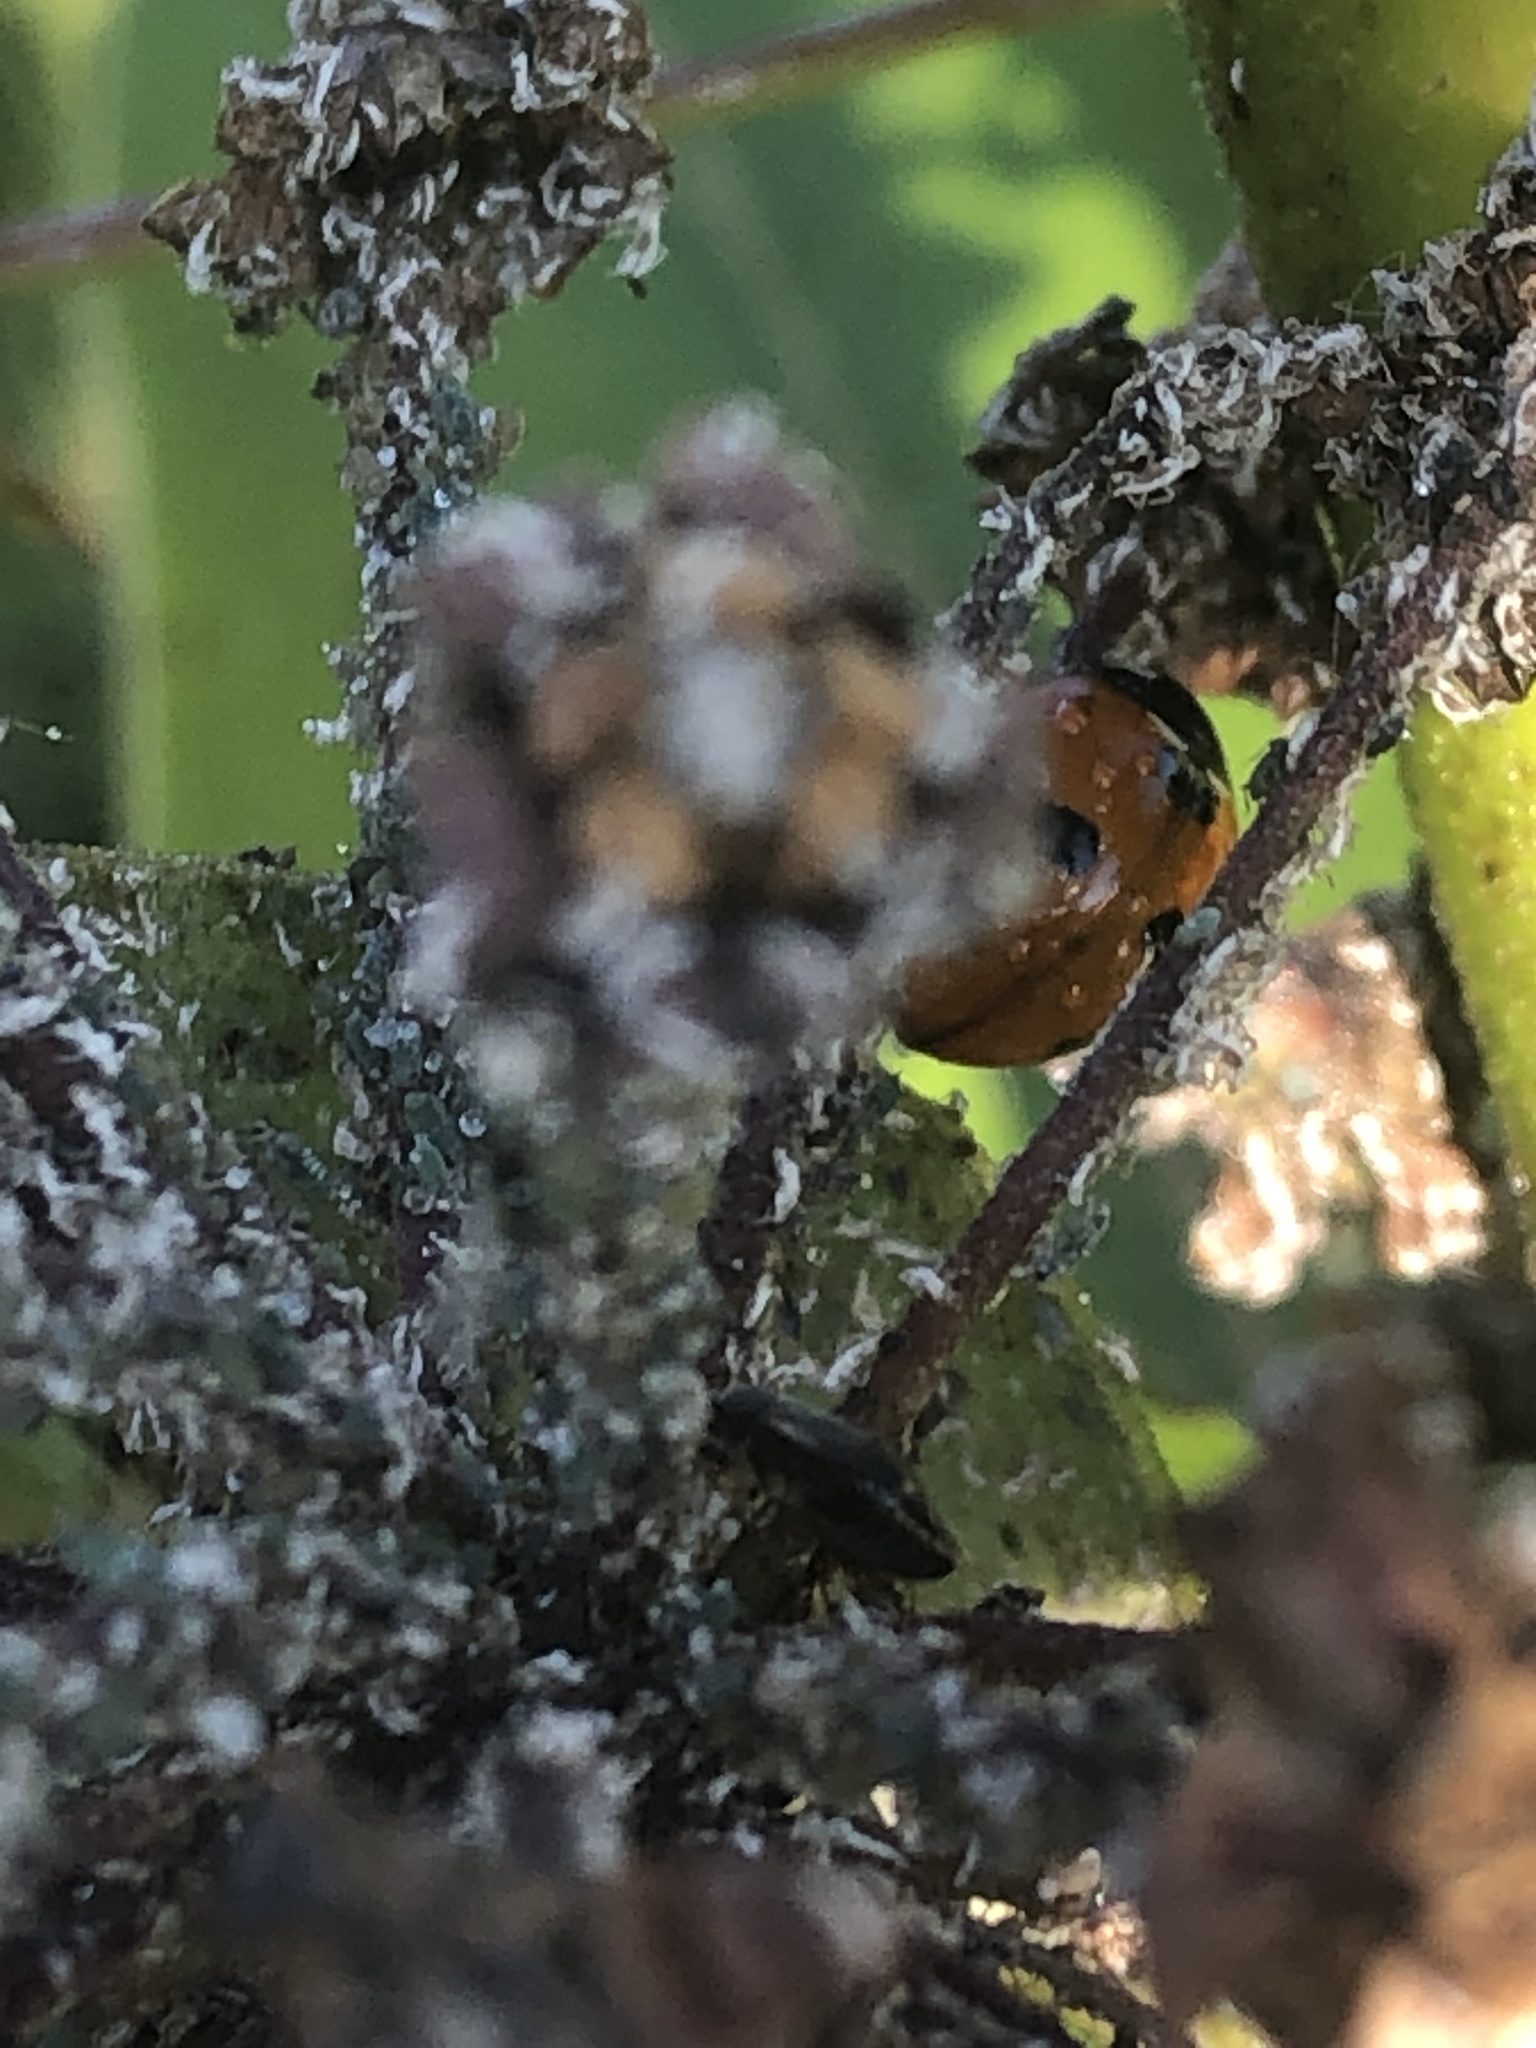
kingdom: Animalia
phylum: Arthropoda
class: Insecta
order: Coleoptera
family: Coccinellidae
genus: Coccinella
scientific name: Coccinella septempunctata
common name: Sevenspotted lady beetle
